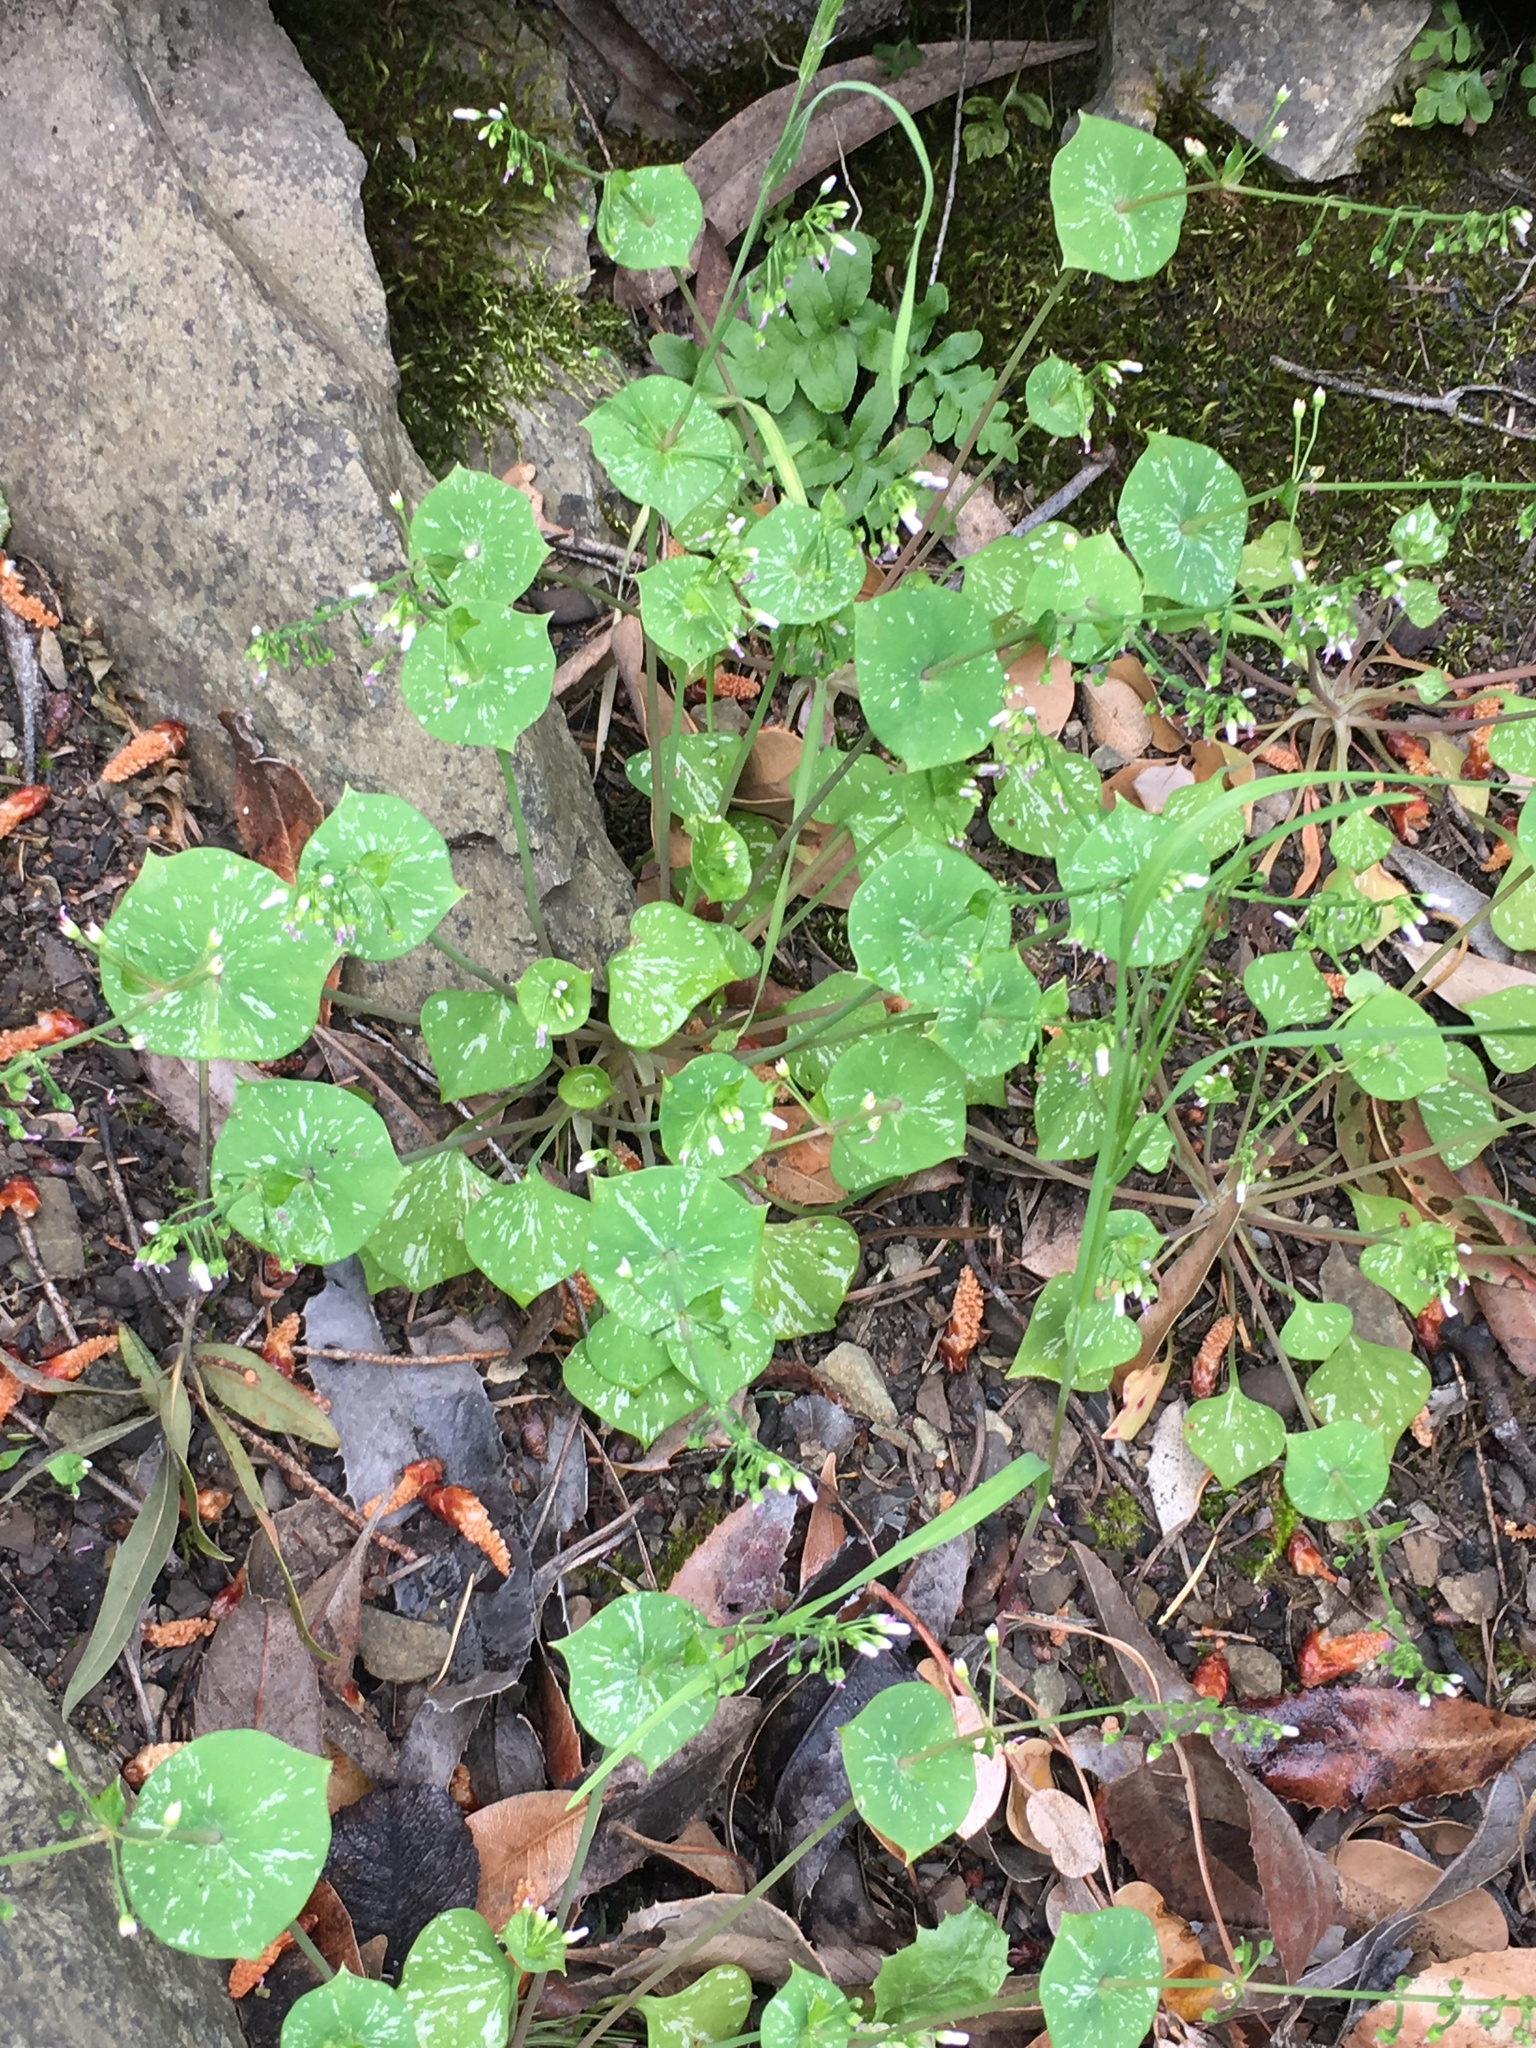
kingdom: Plantae
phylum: Tracheophyta
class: Magnoliopsida
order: Caryophyllales
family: Montiaceae
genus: Claytonia
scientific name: Claytonia perfoliata
